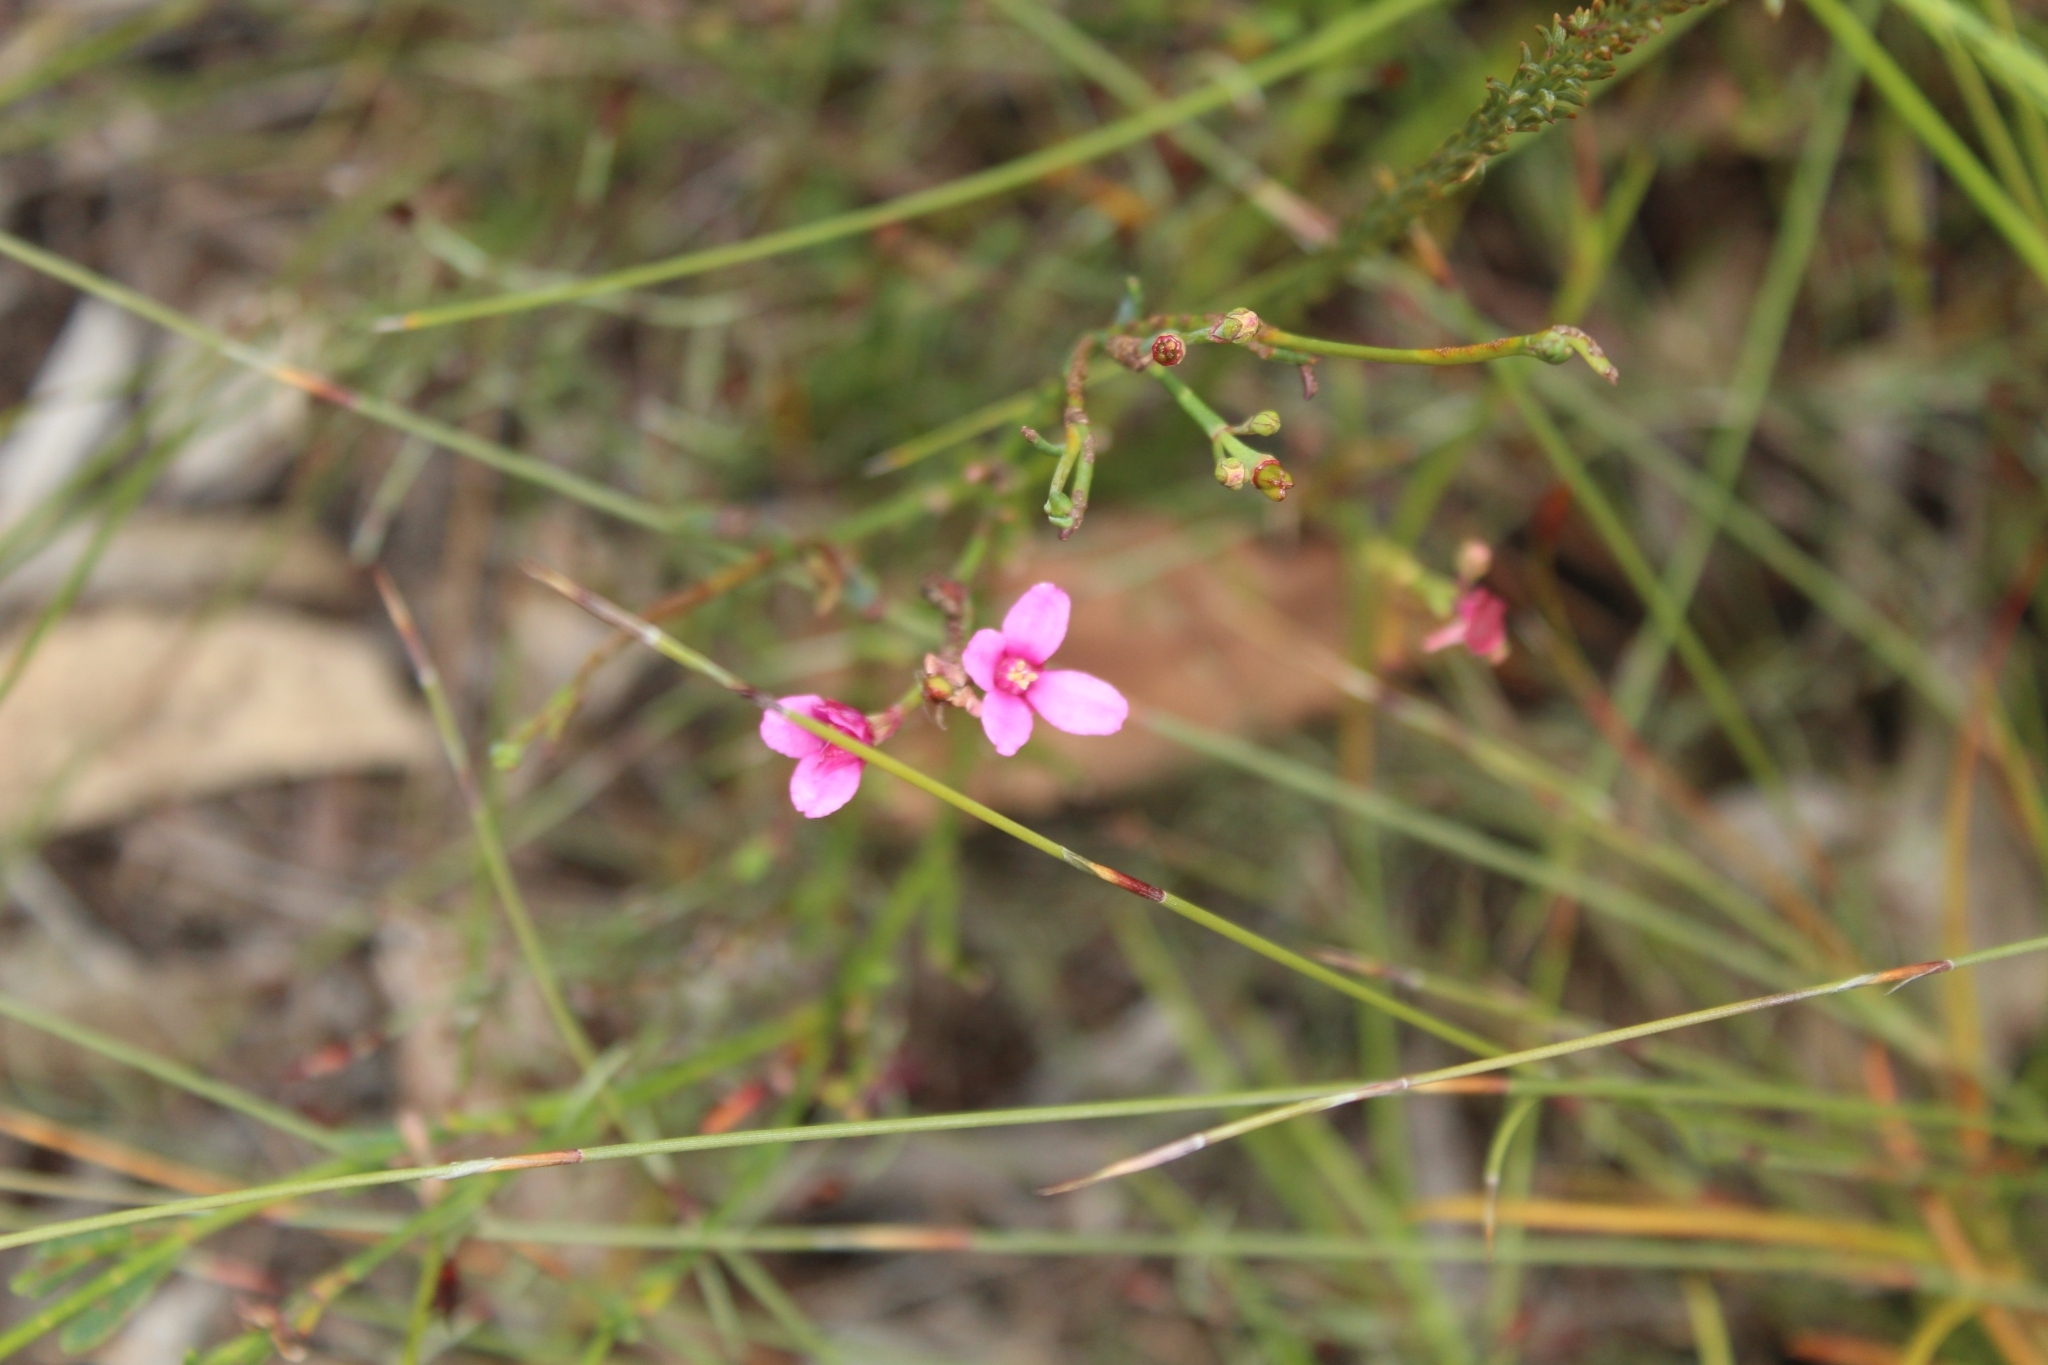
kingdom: Plantae
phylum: Tracheophyta
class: Magnoliopsida
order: Sapindales
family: Rutaceae
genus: Boronia
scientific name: Boronia juncea
